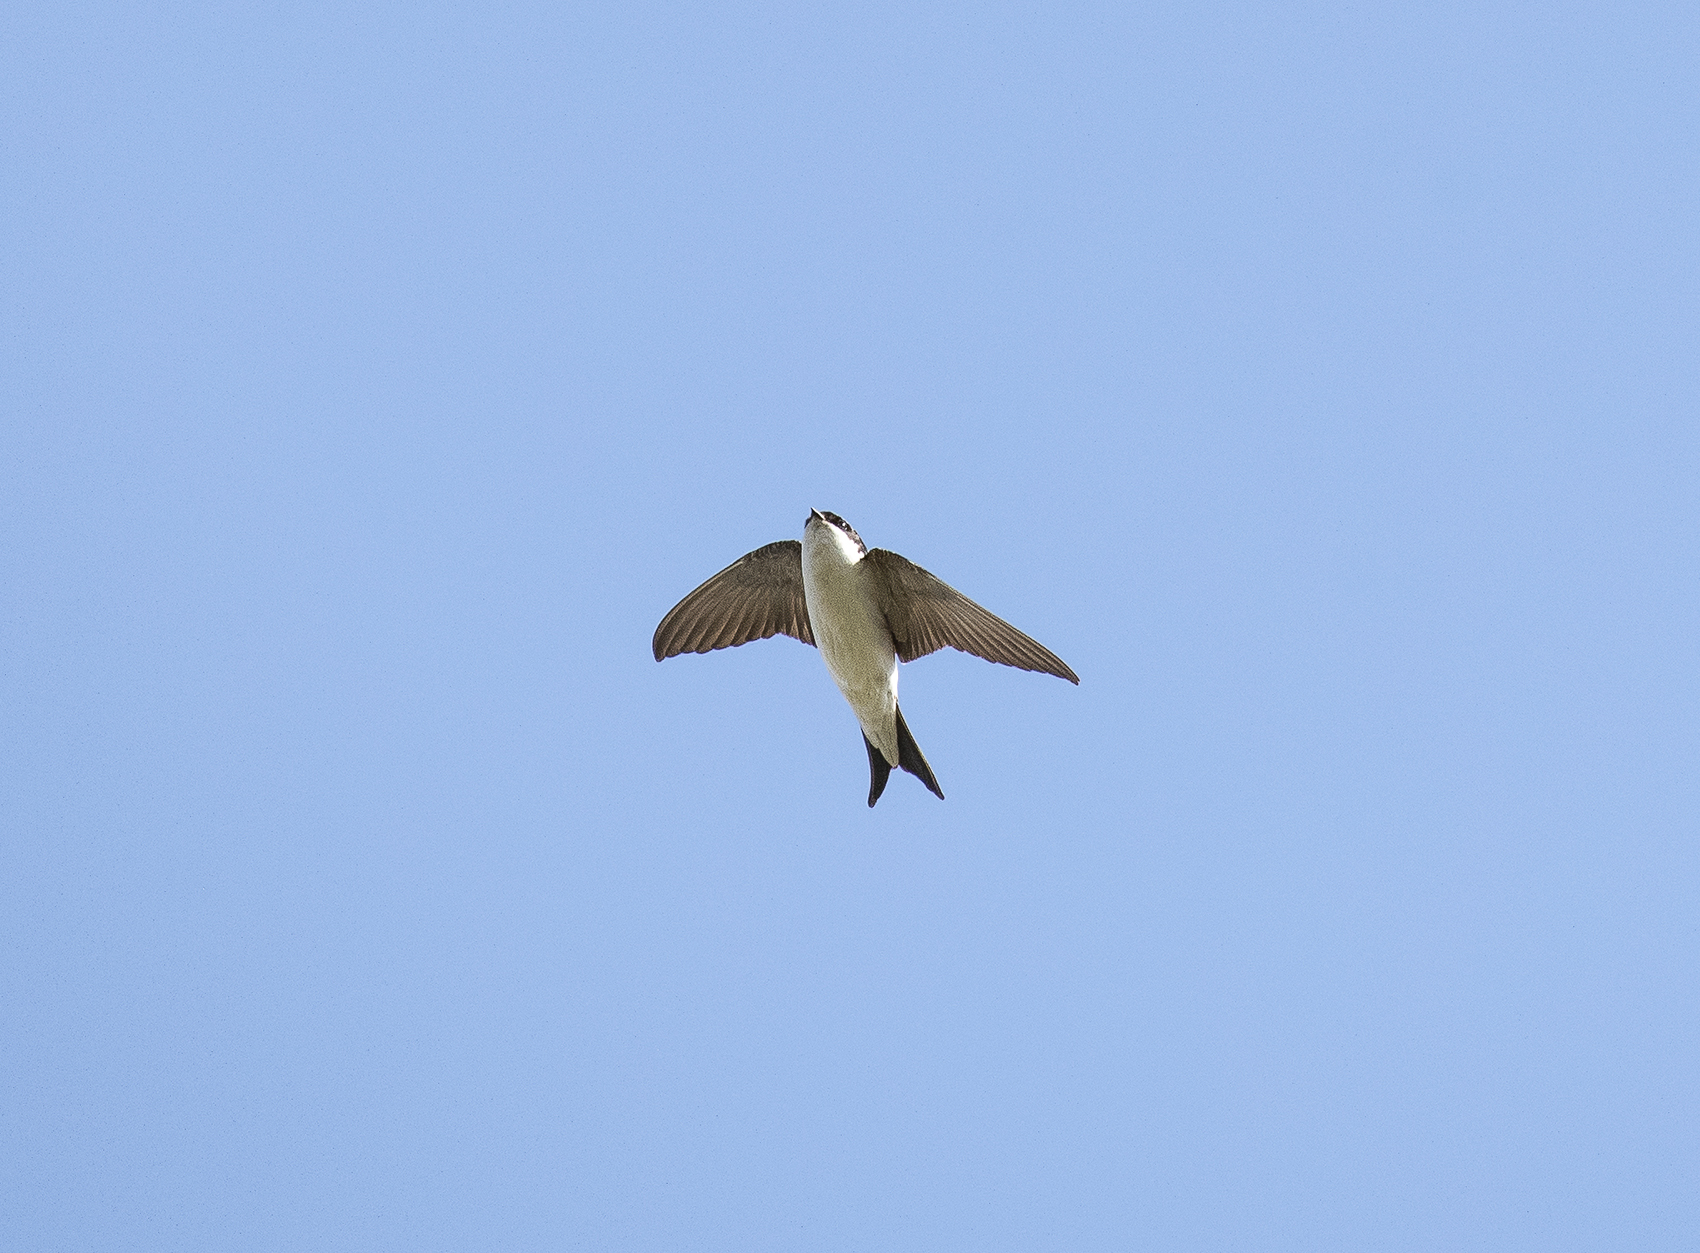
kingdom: Animalia
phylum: Chordata
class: Aves
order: Passeriformes
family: Hirundinidae
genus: Delichon
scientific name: Delichon urbicum
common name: Common house martin
